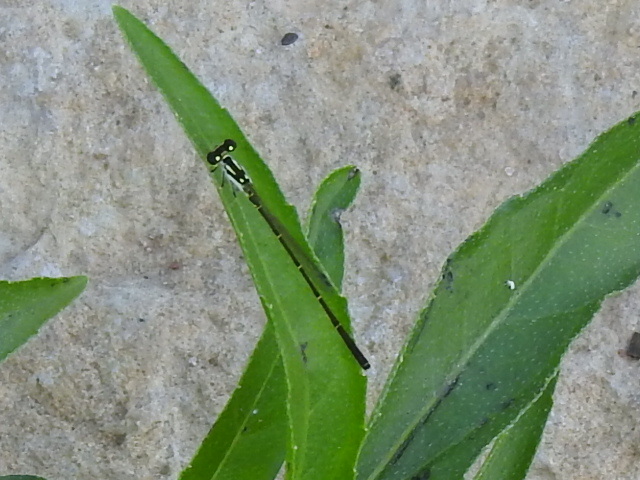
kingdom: Animalia
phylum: Arthropoda
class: Insecta
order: Odonata
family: Coenagrionidae
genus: Ischnura
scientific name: Ischnura posita
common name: Fragile forktail
